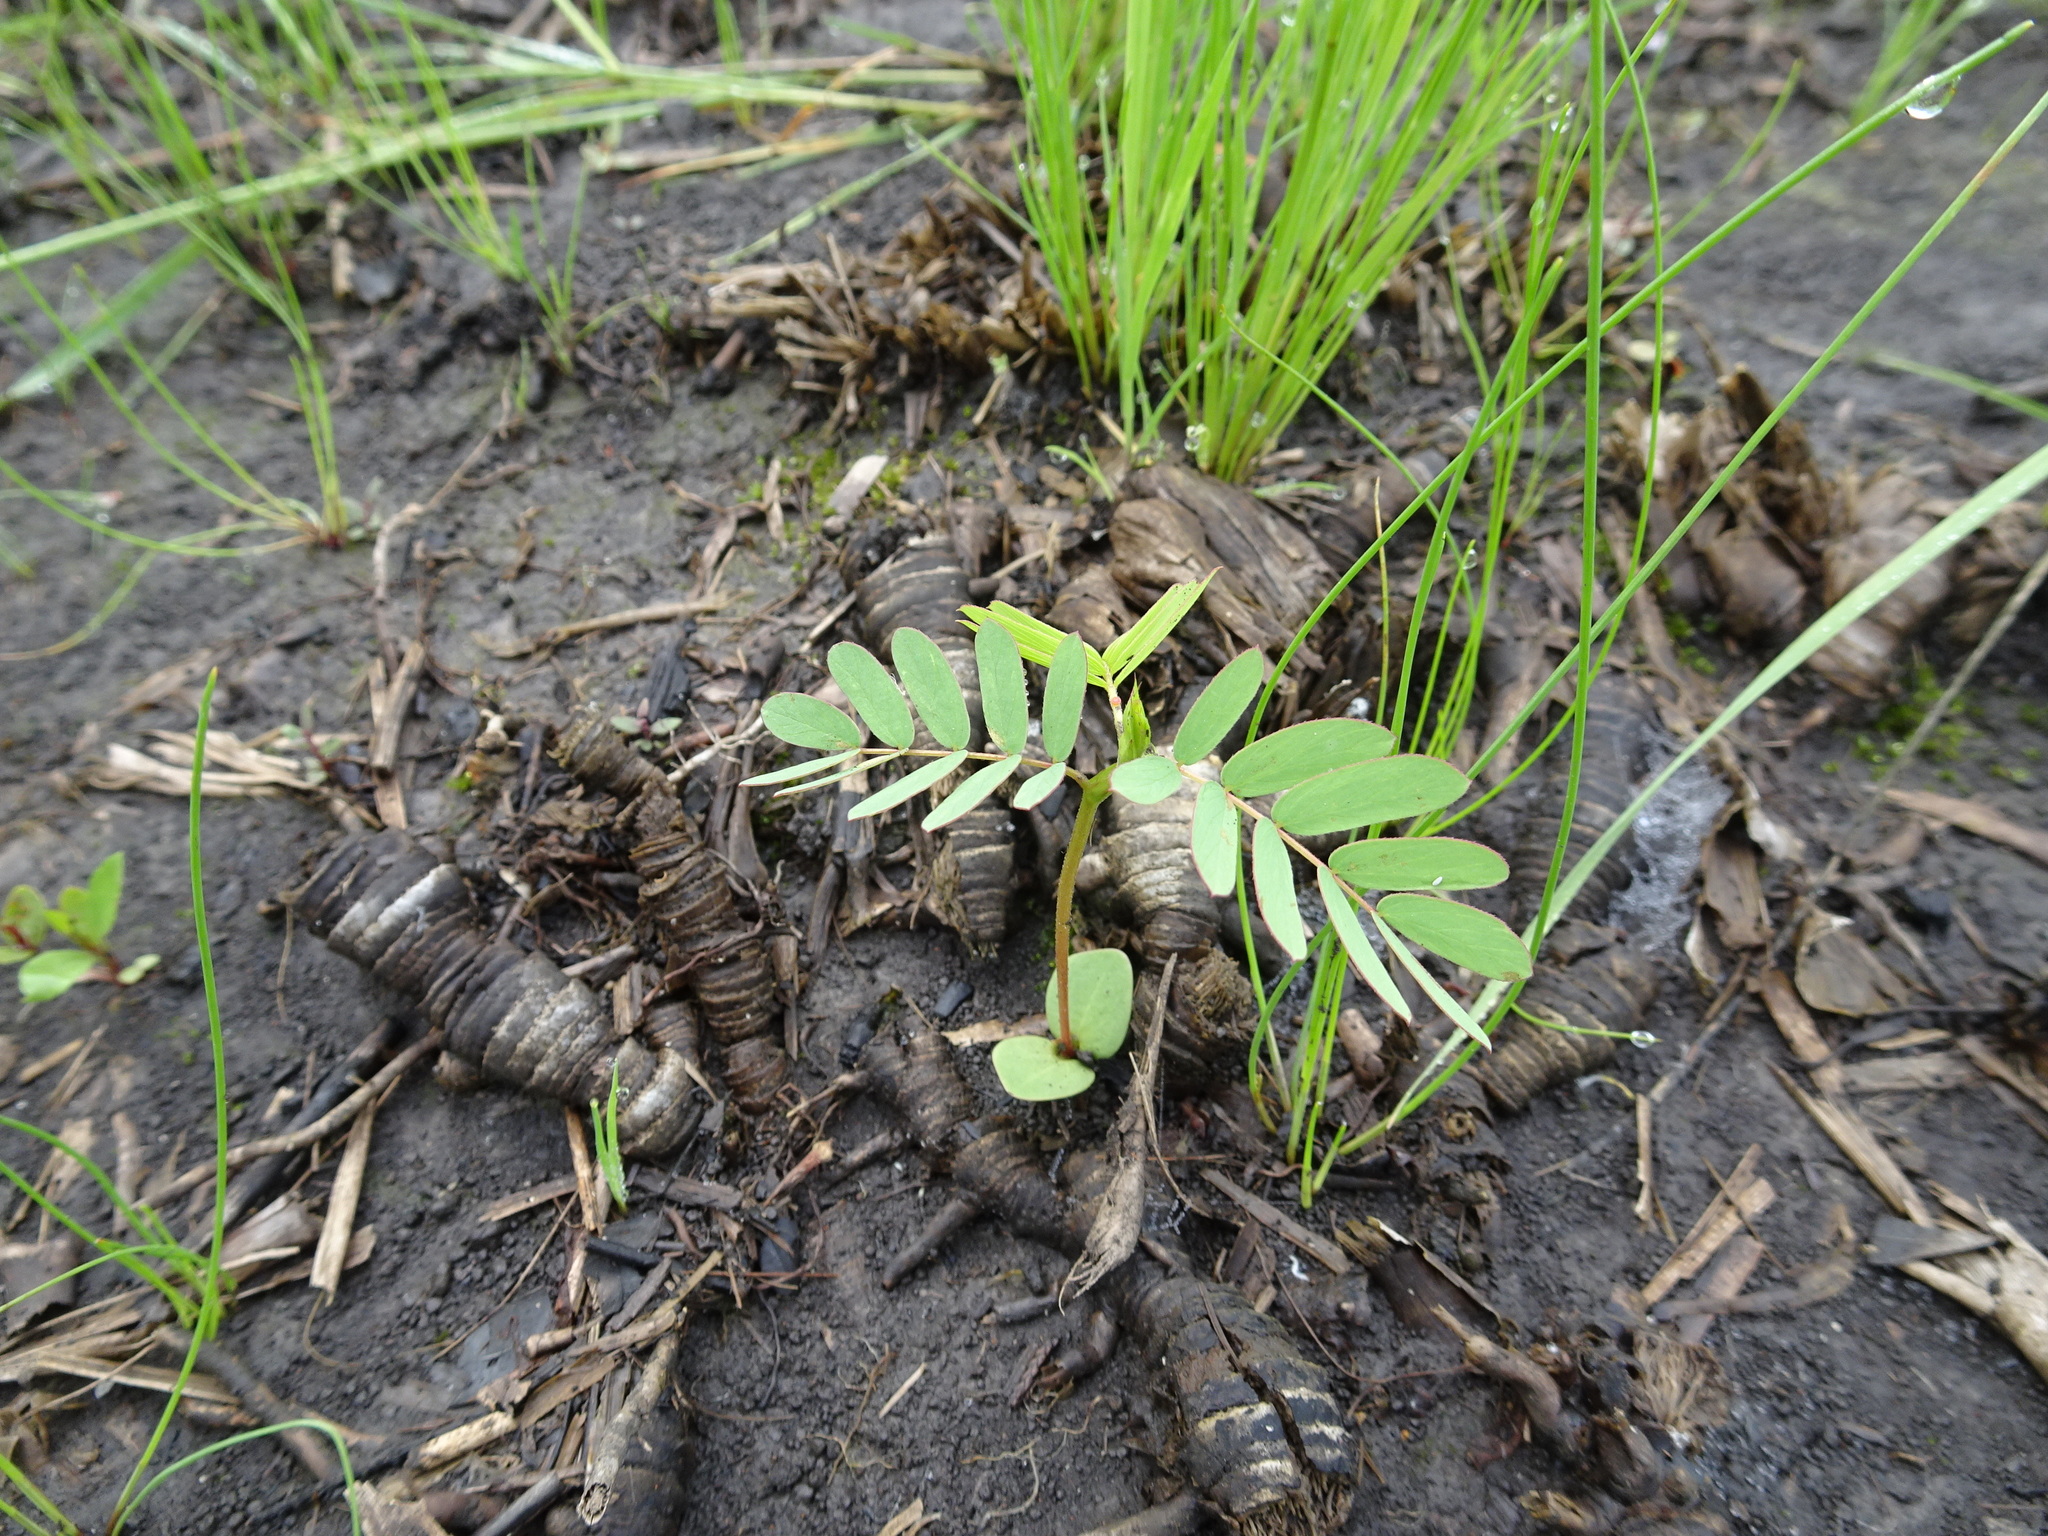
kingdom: Plantae
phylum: Tracheophyta
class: Magnoliopsida
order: Fabales
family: Fabaceae
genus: Chamaecrista
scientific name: Chamaecrista fasciculata
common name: Golden cassia
